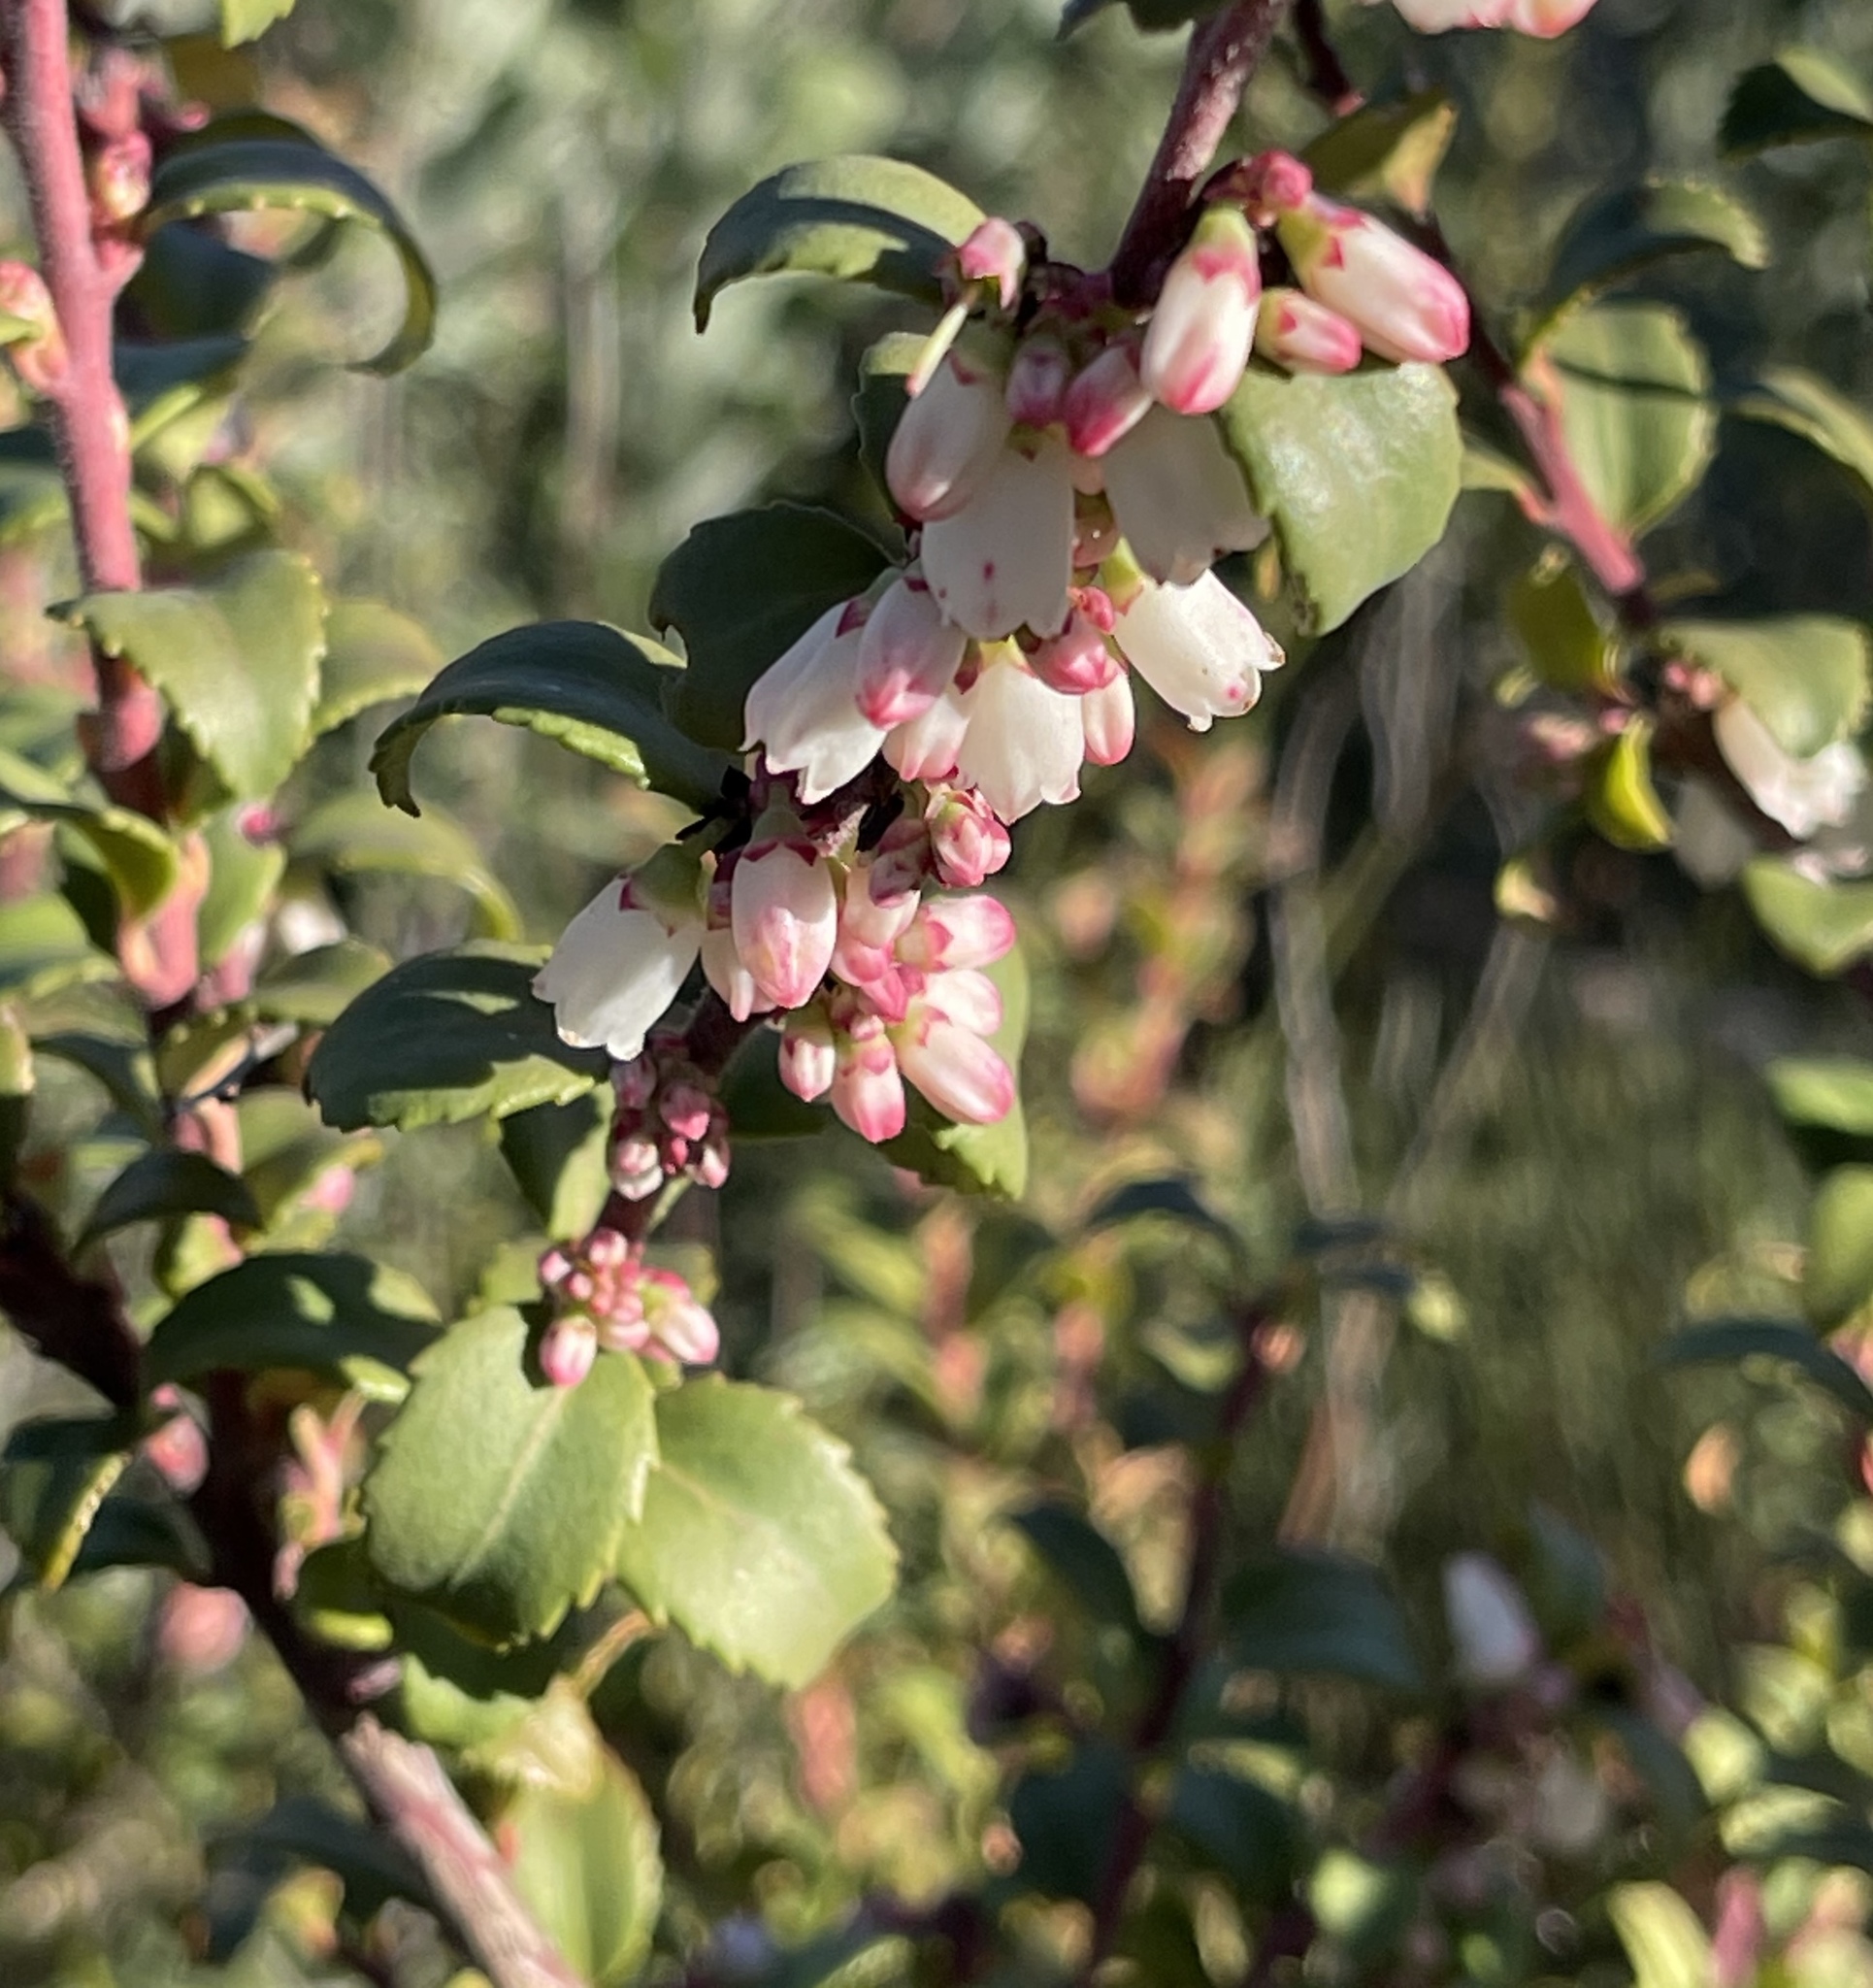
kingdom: Plantae
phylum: Tracheophyta
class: Magnoliopsida
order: Ericales
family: Ericaceae
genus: Vaccinium
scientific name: Vaccinium ovatum
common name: California-huckleberry
